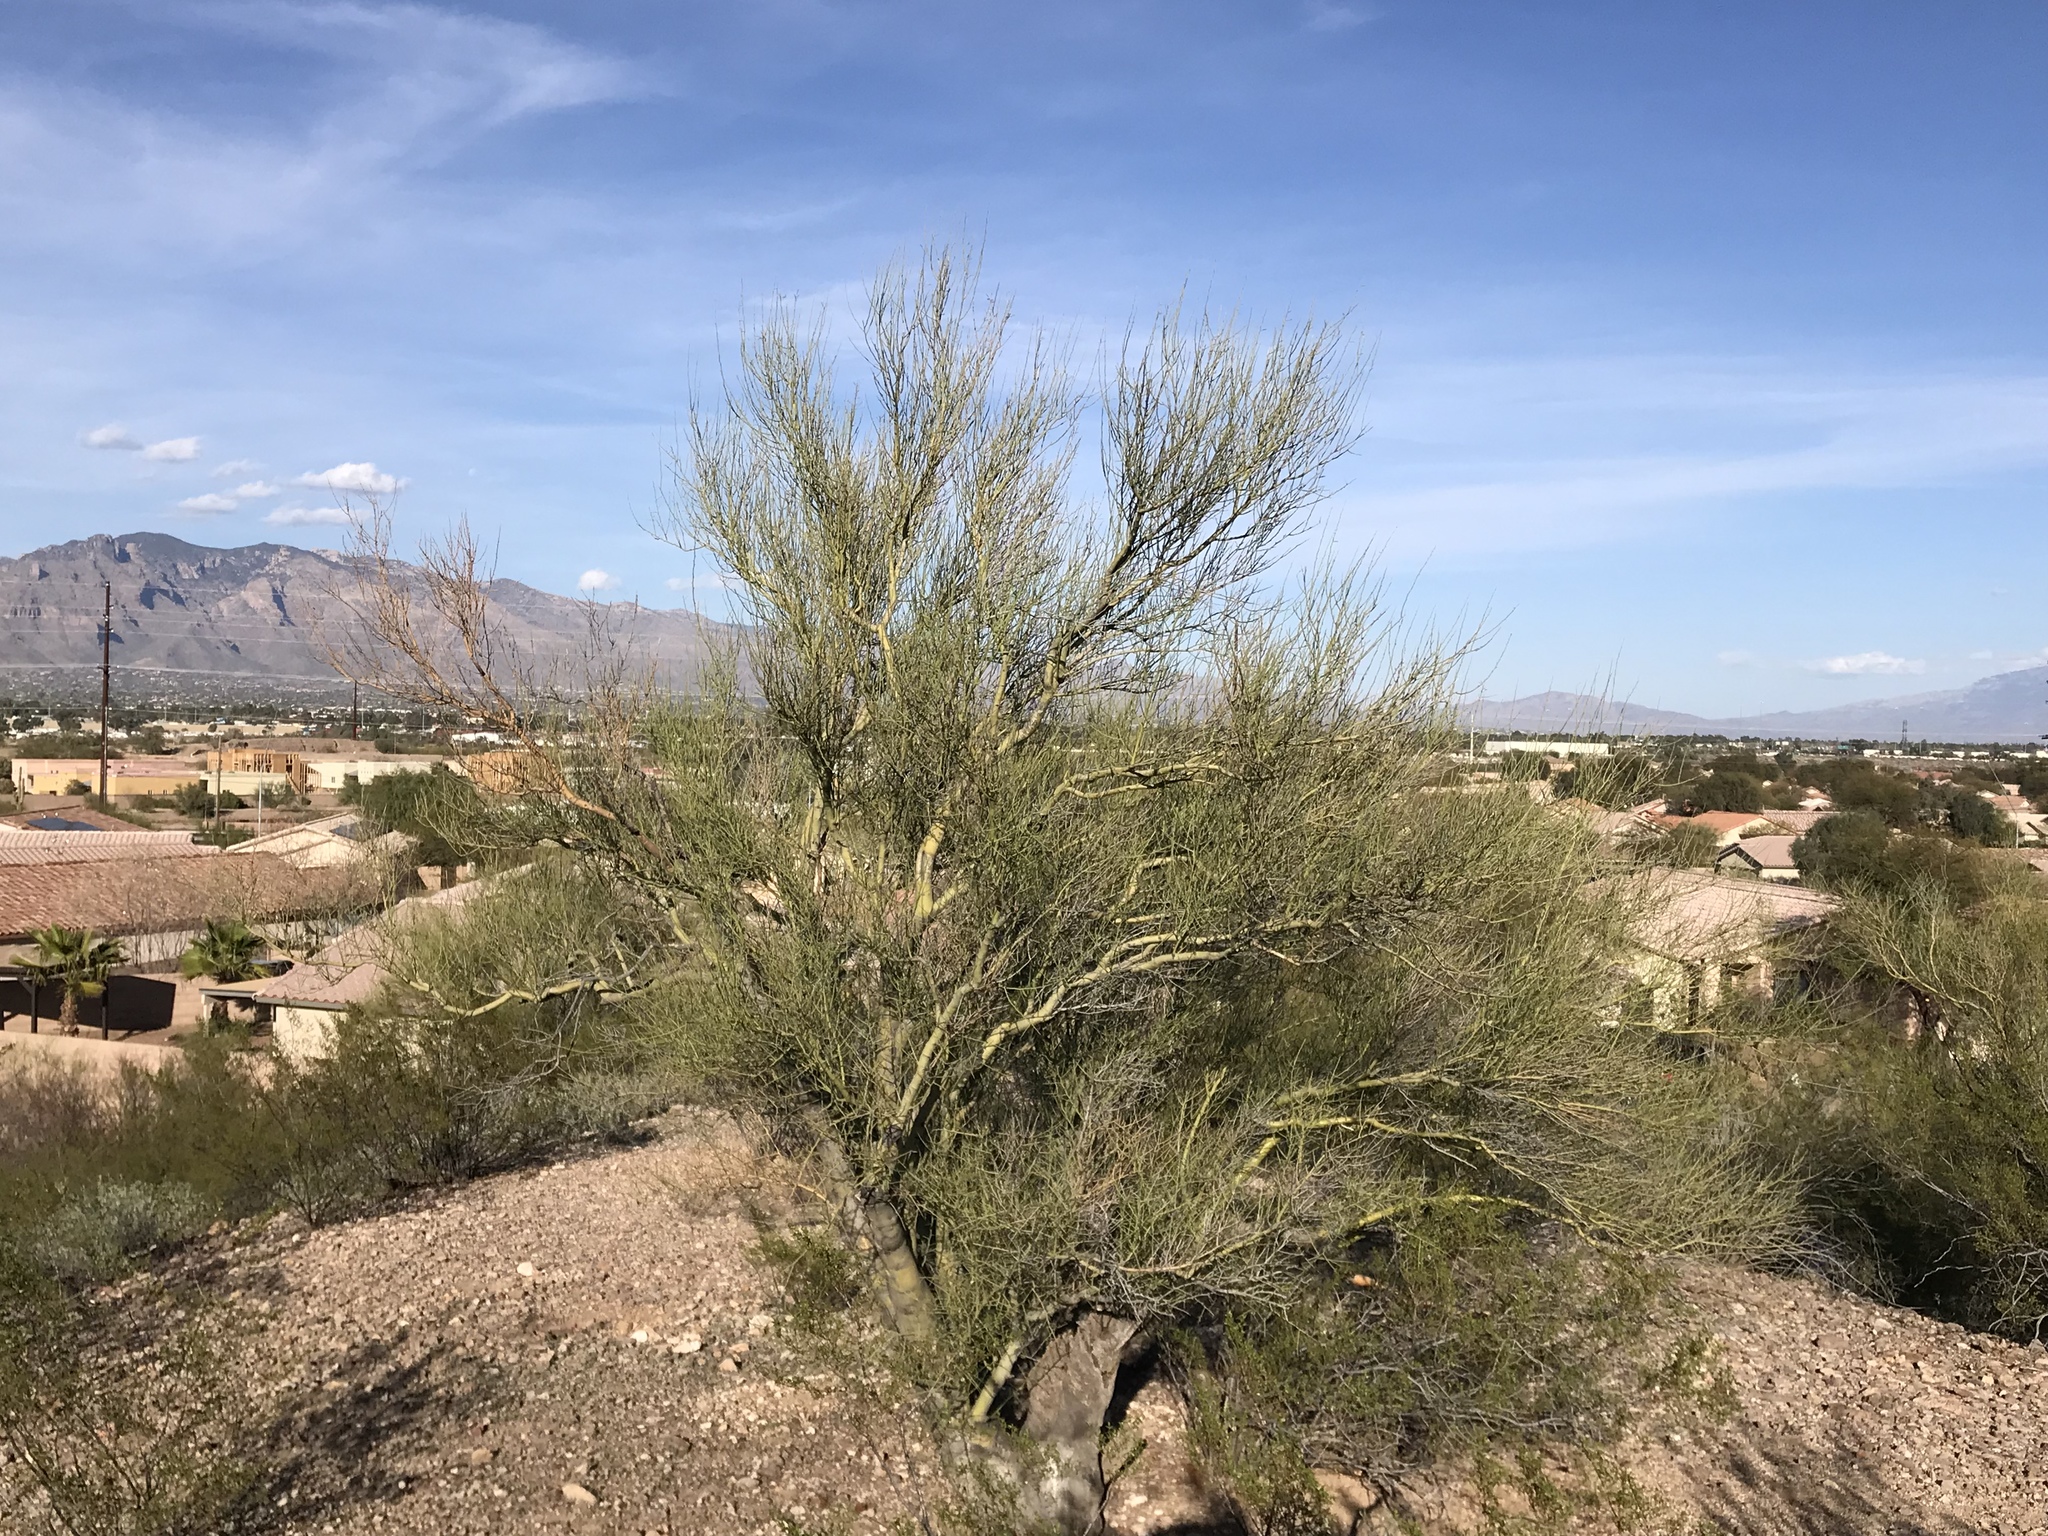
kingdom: Plantae
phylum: Tracheophyta
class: Magnoliopsida
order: Fabales
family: Fabaceae
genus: Parkinsonia
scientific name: Parkinsonia microphylla
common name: Yellow paloverde
